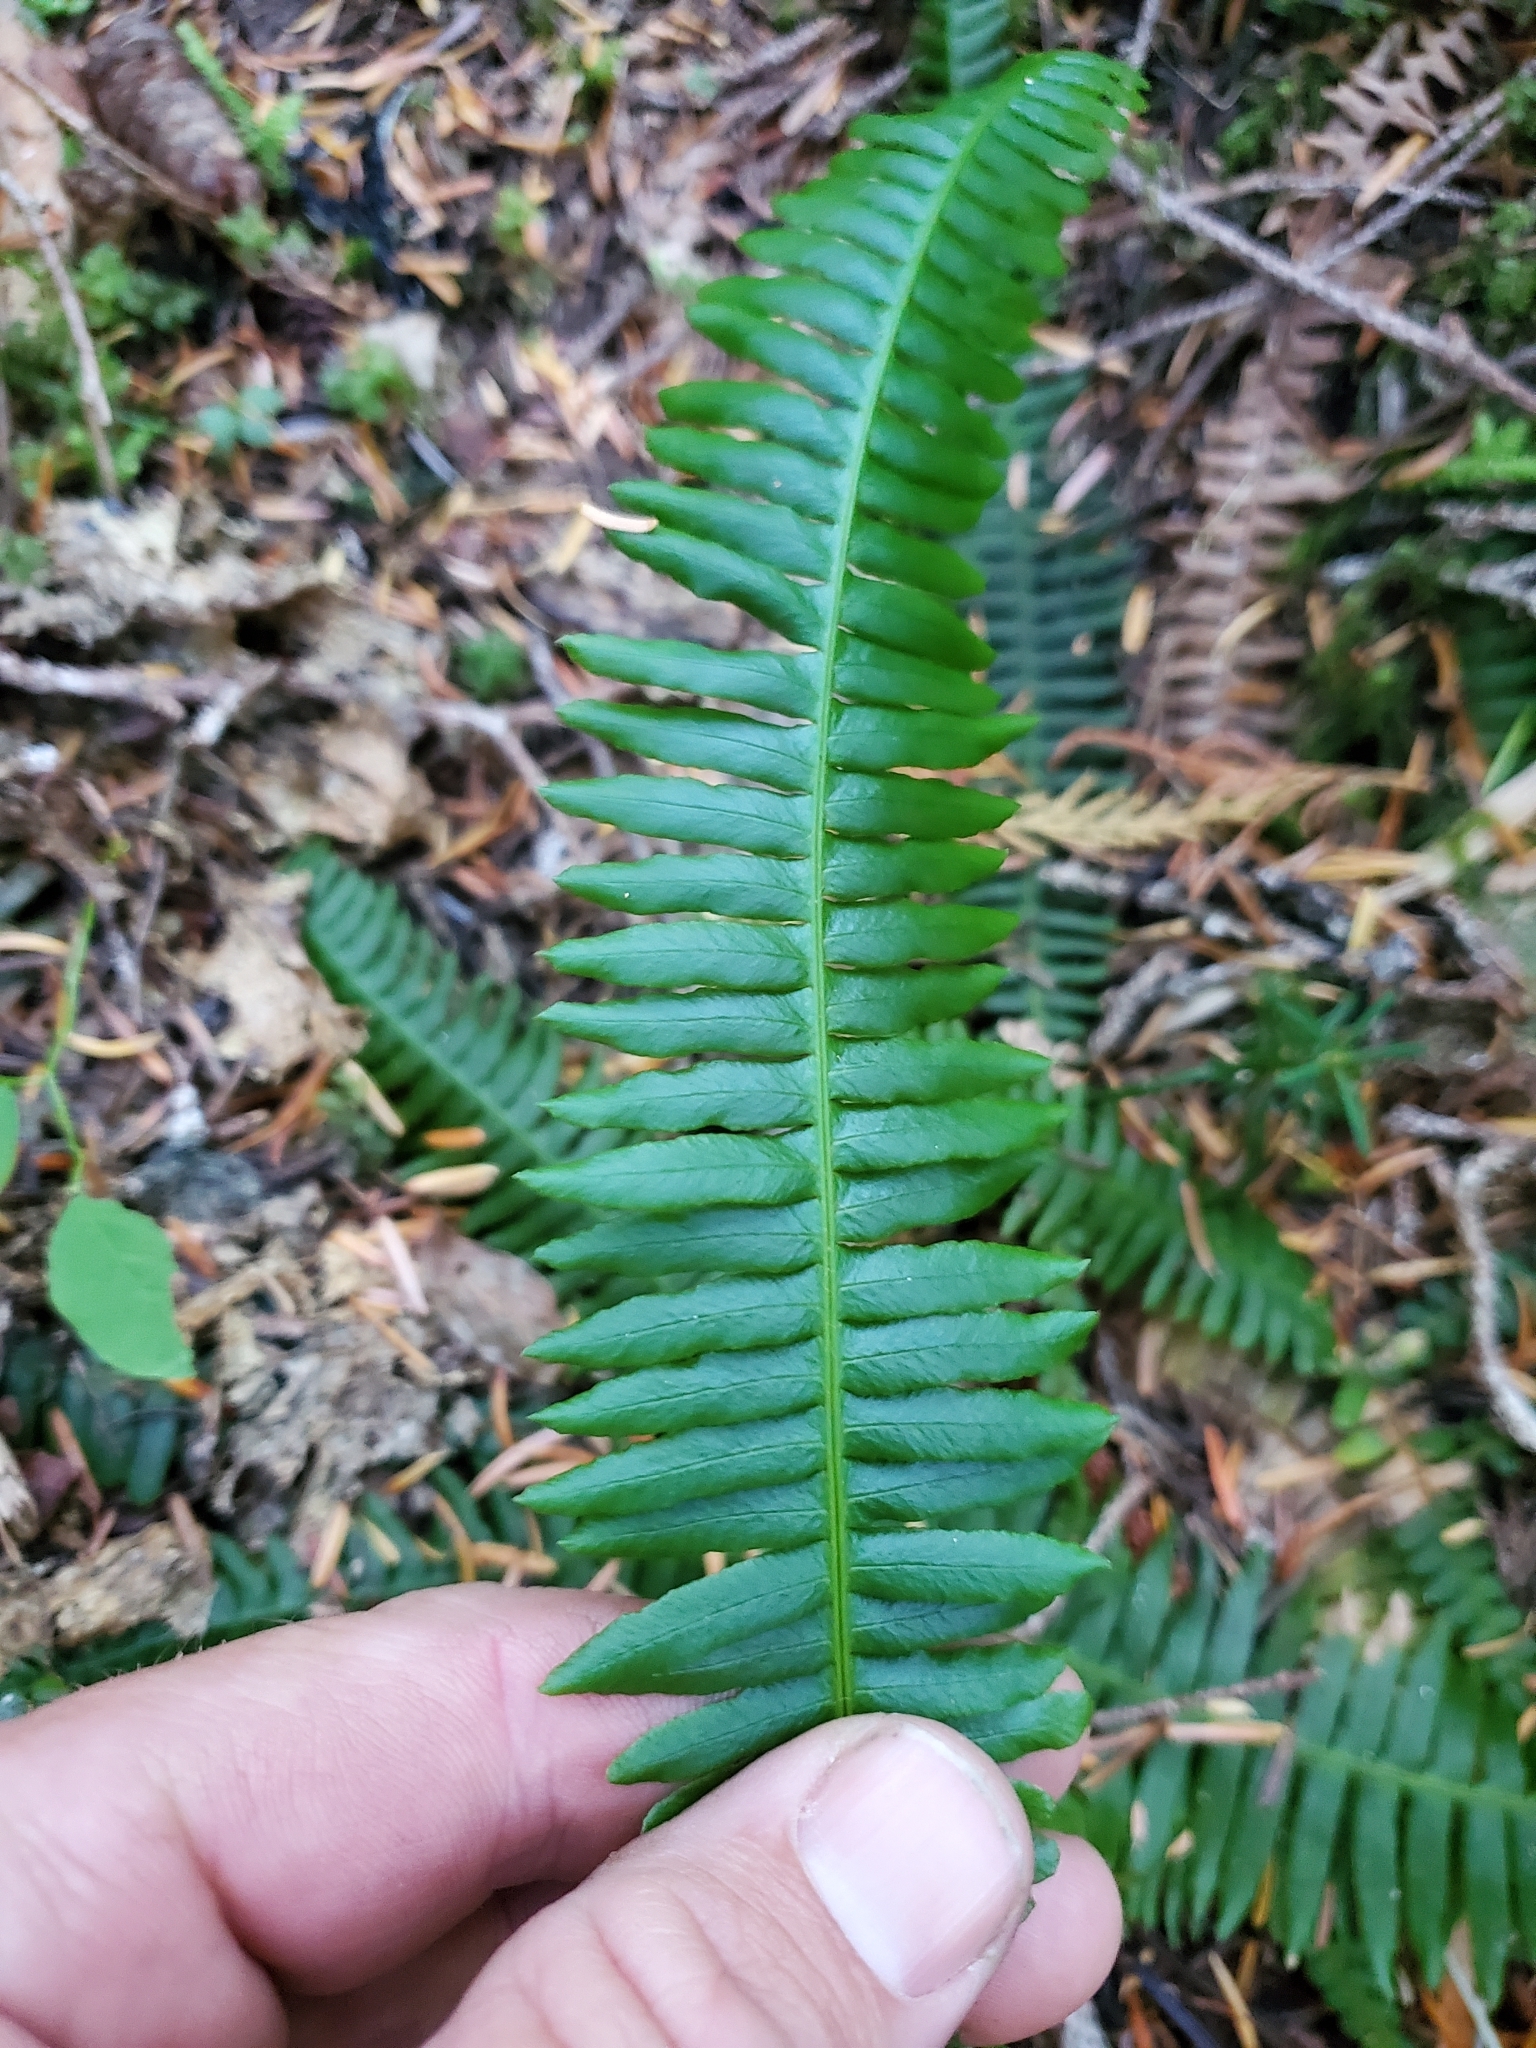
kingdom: Plantae
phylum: Tracheophyta
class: Polypodiopsida
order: Polypodiales
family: Blechnaceae
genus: Struthiopteris
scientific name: Struthiopteris spicant
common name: Deer fern
